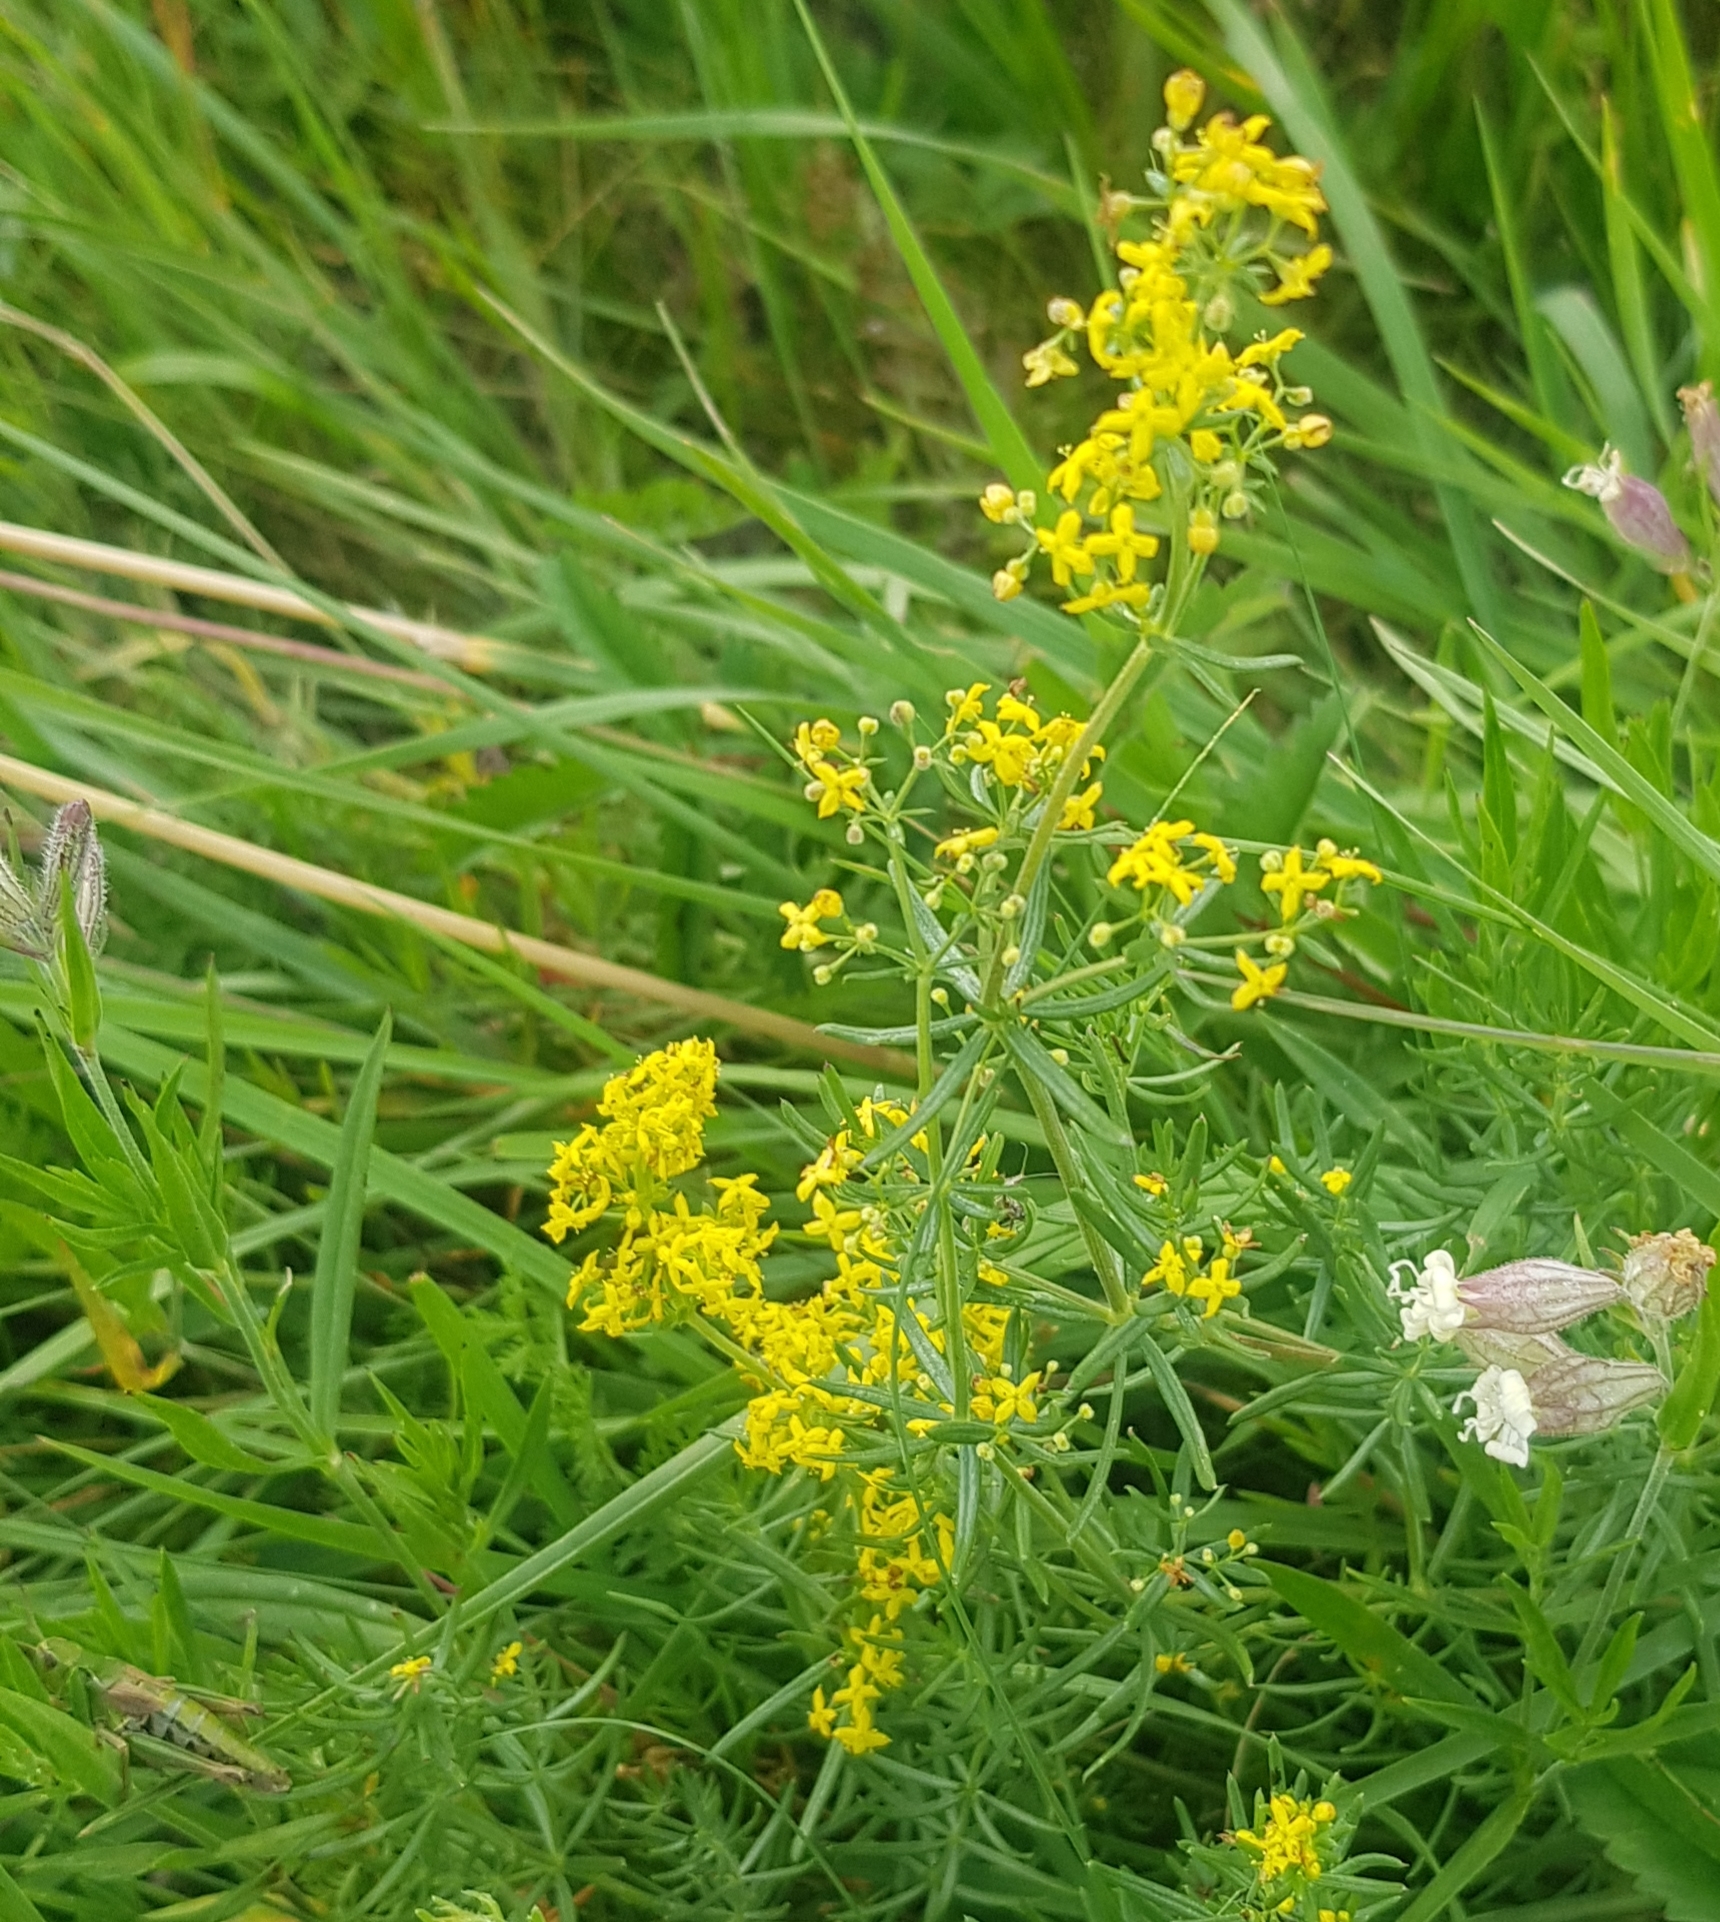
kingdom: Plantae
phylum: Tracheophyta
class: Magnoliopsida
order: Gentianales
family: Rubiaceae
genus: Galium
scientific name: Galium verum
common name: Lady's bedstraw
